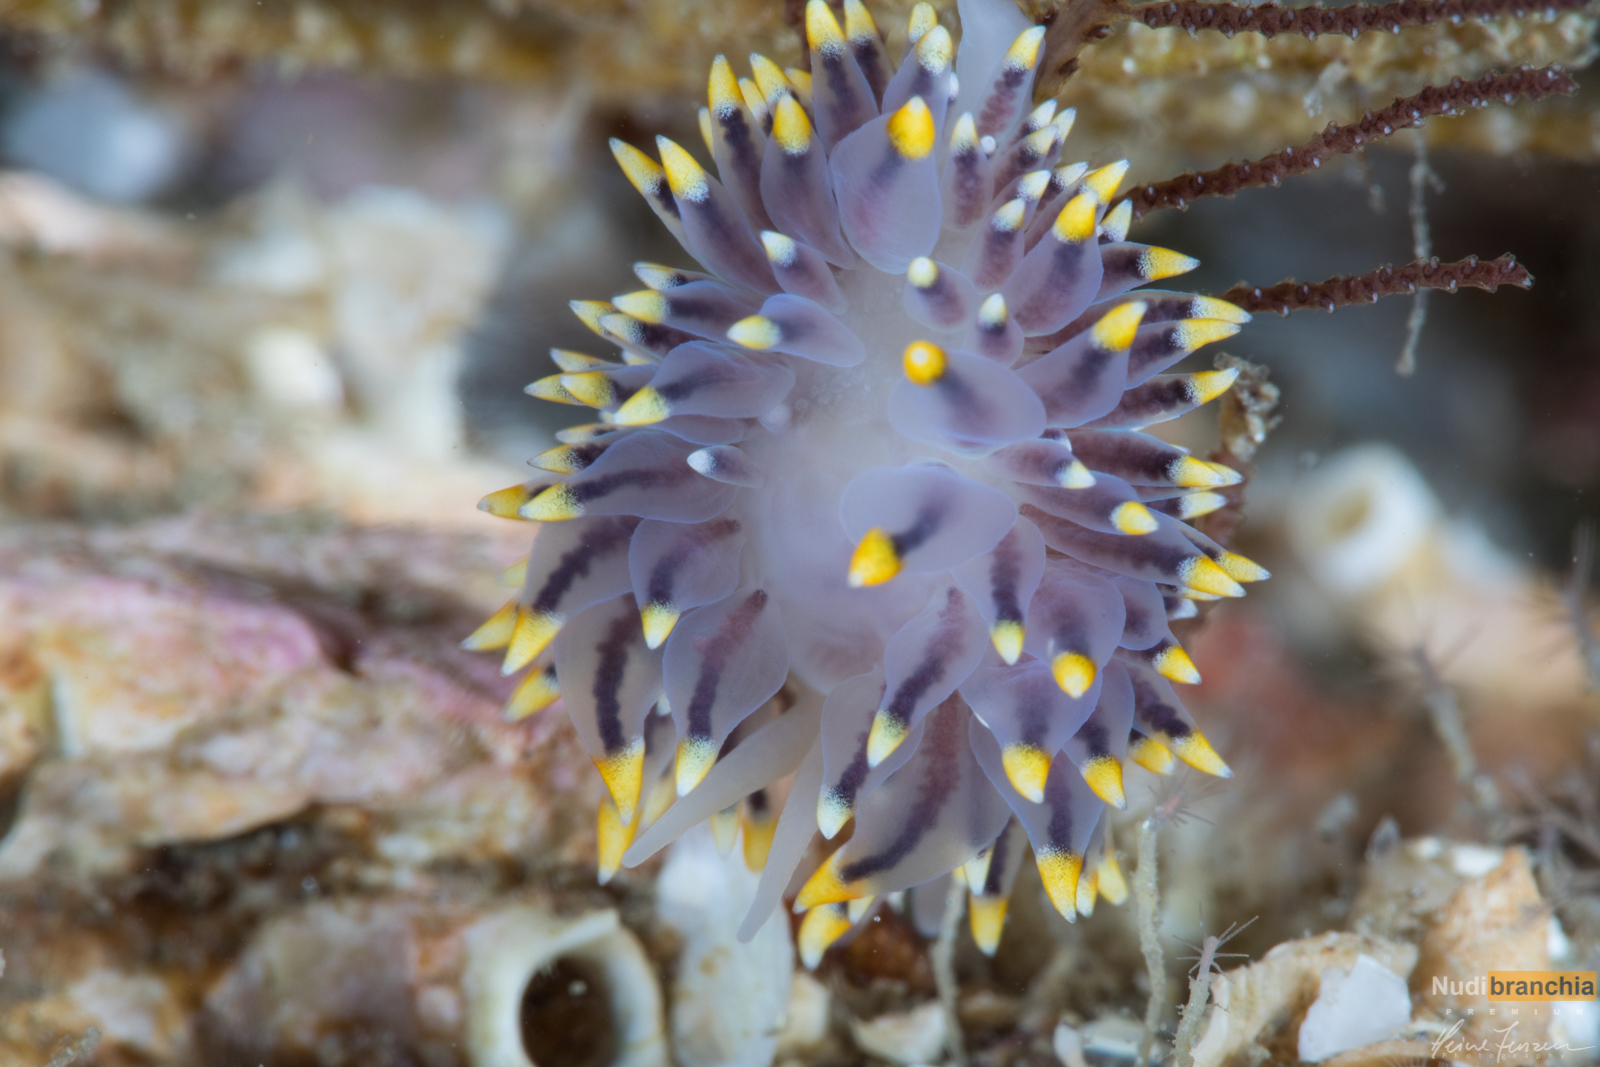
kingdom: Animalia
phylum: Mollusca
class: Gastropoda
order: Nudibranchia
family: Eubranchidae
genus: Eubranchus
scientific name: Eubranchus tricolor
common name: Painted balloon aeolis
